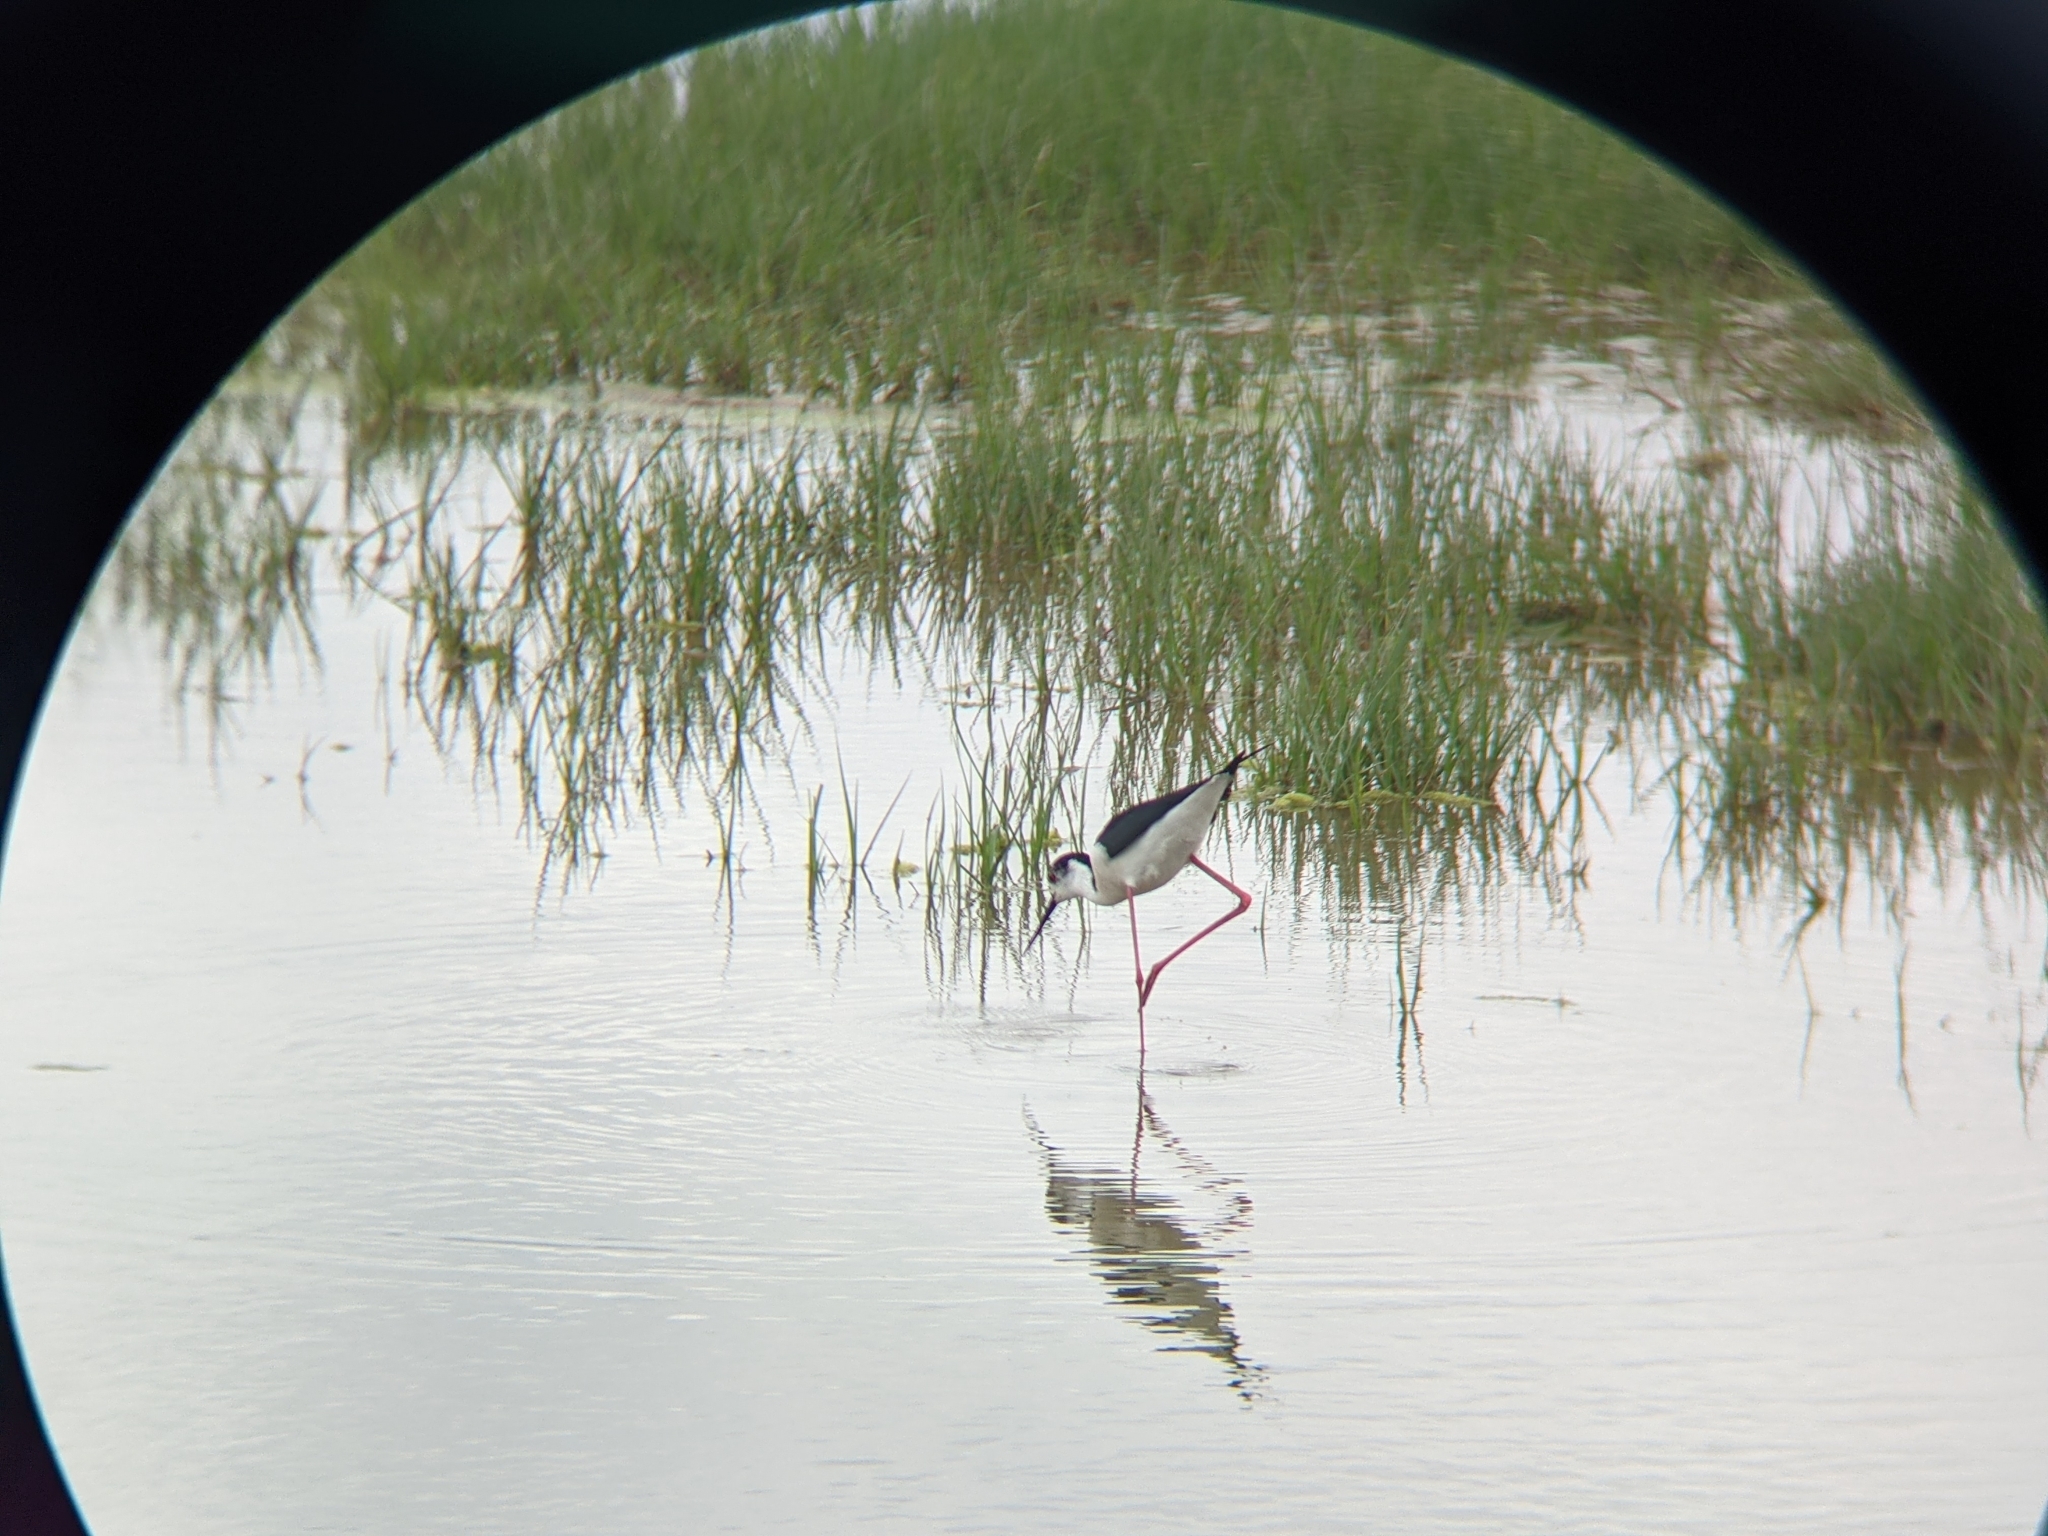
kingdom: Animalia
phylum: Chordata
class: Aves
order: Charadriiformes
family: Recurvirostridae
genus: Himantopus
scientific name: Himantopus himantopus
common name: Black-winged stilt
